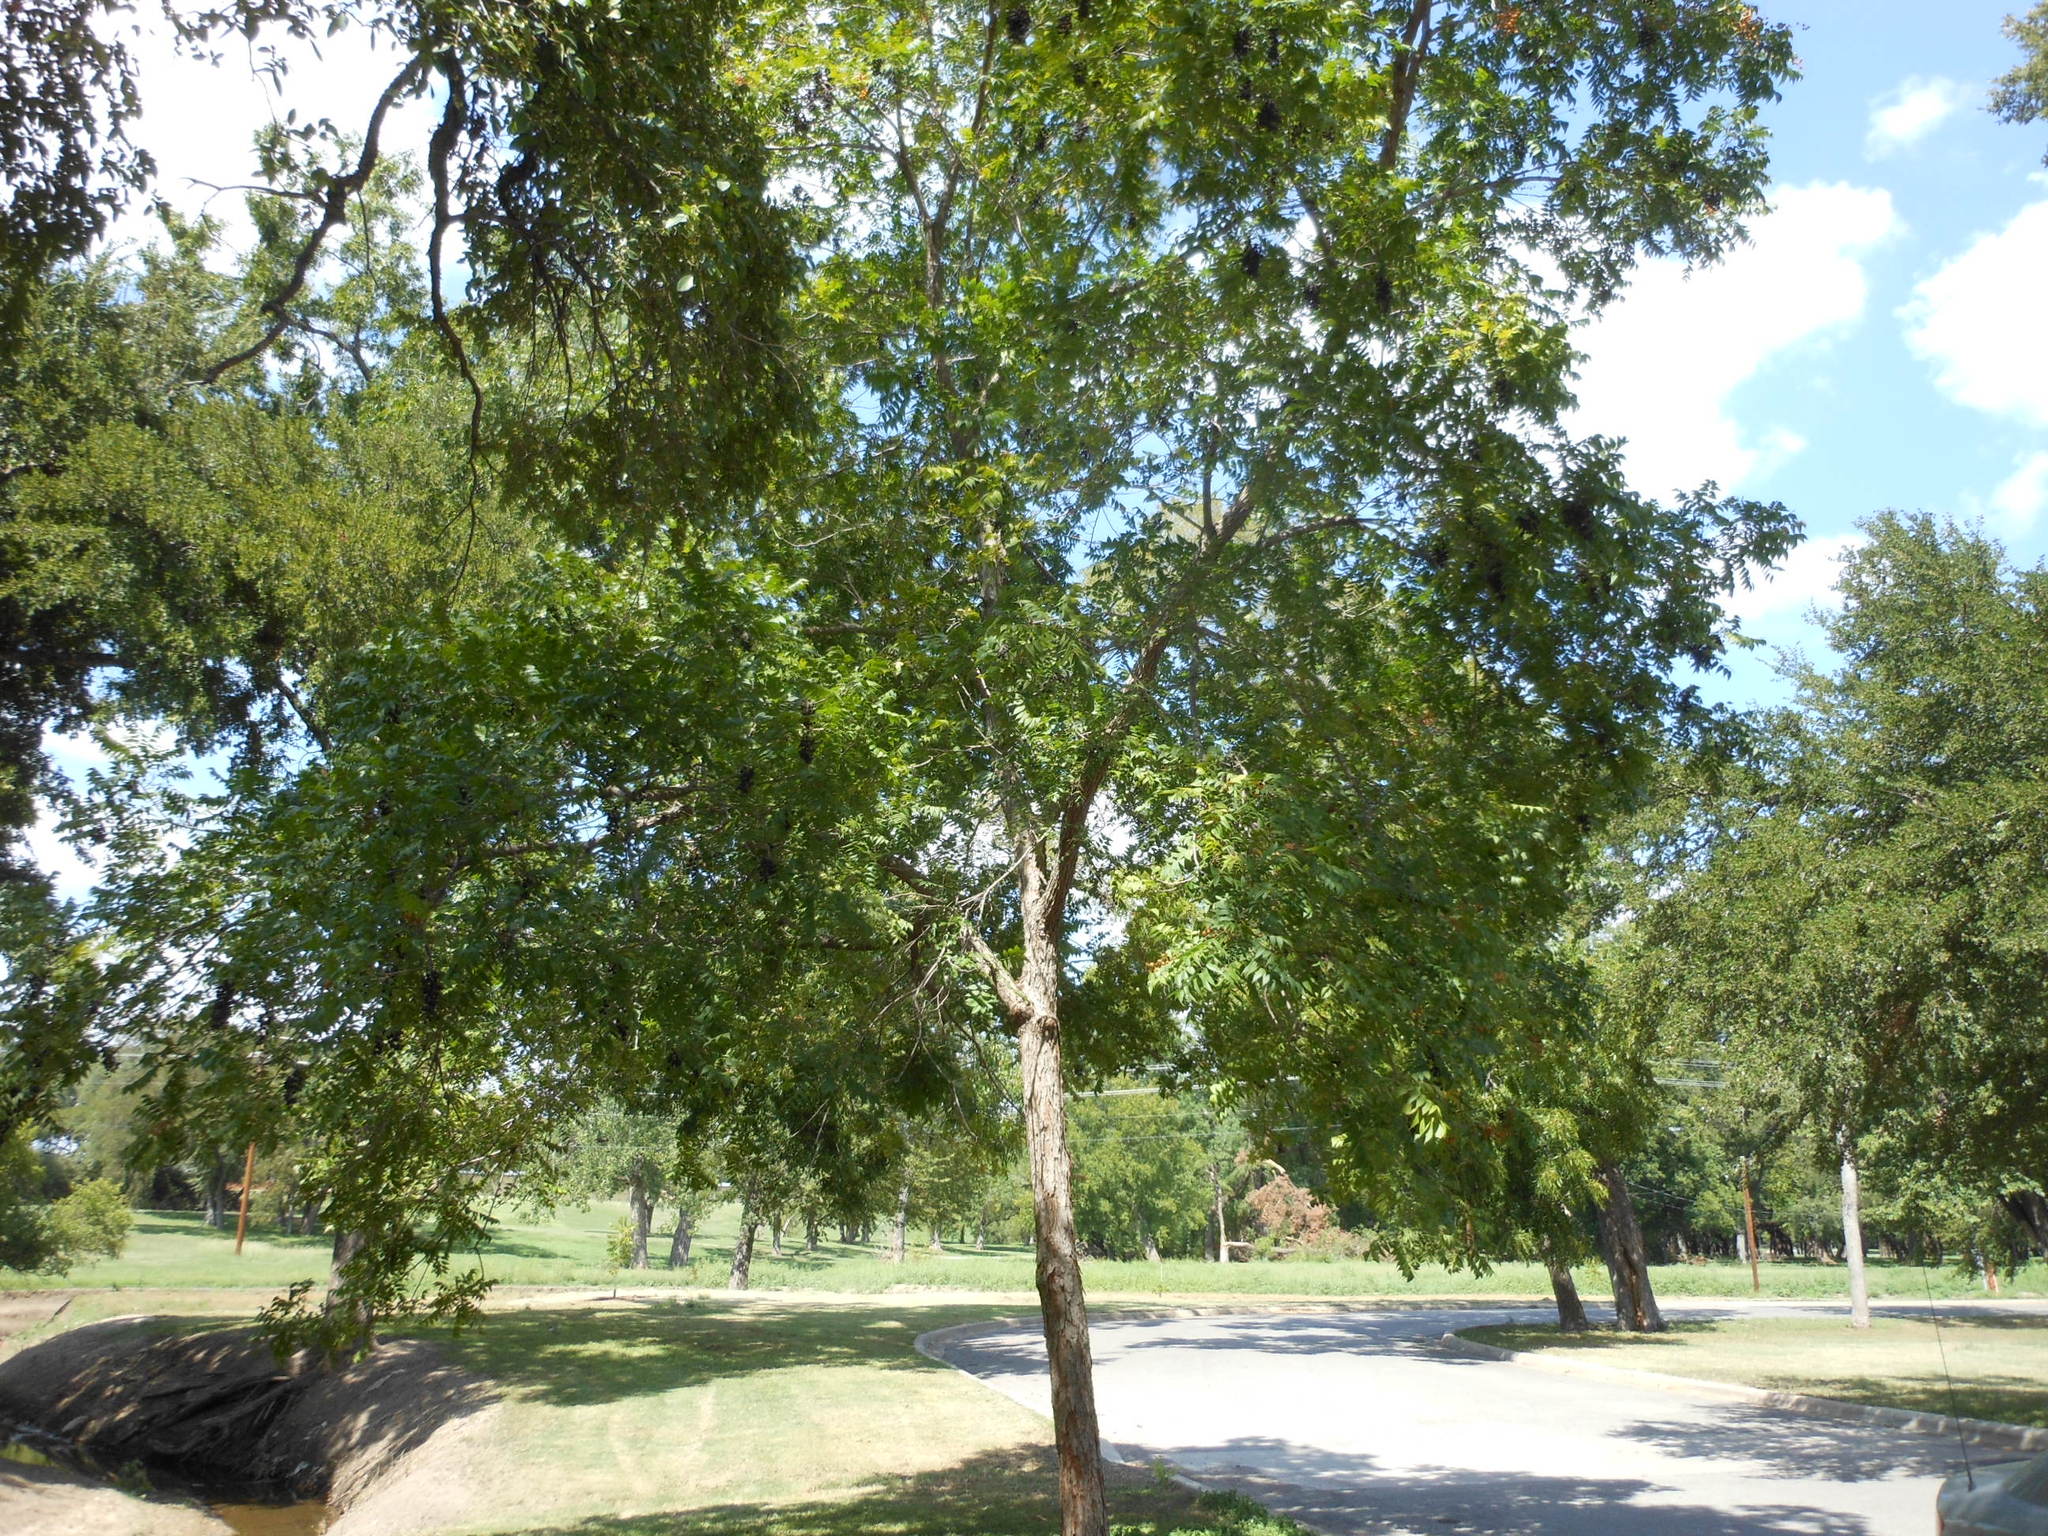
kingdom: Plantae
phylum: Tracheophyta
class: Magnoliopsida
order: Sapindales
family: Sapindaceae
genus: Sapindus
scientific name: Sapindus drummondii
